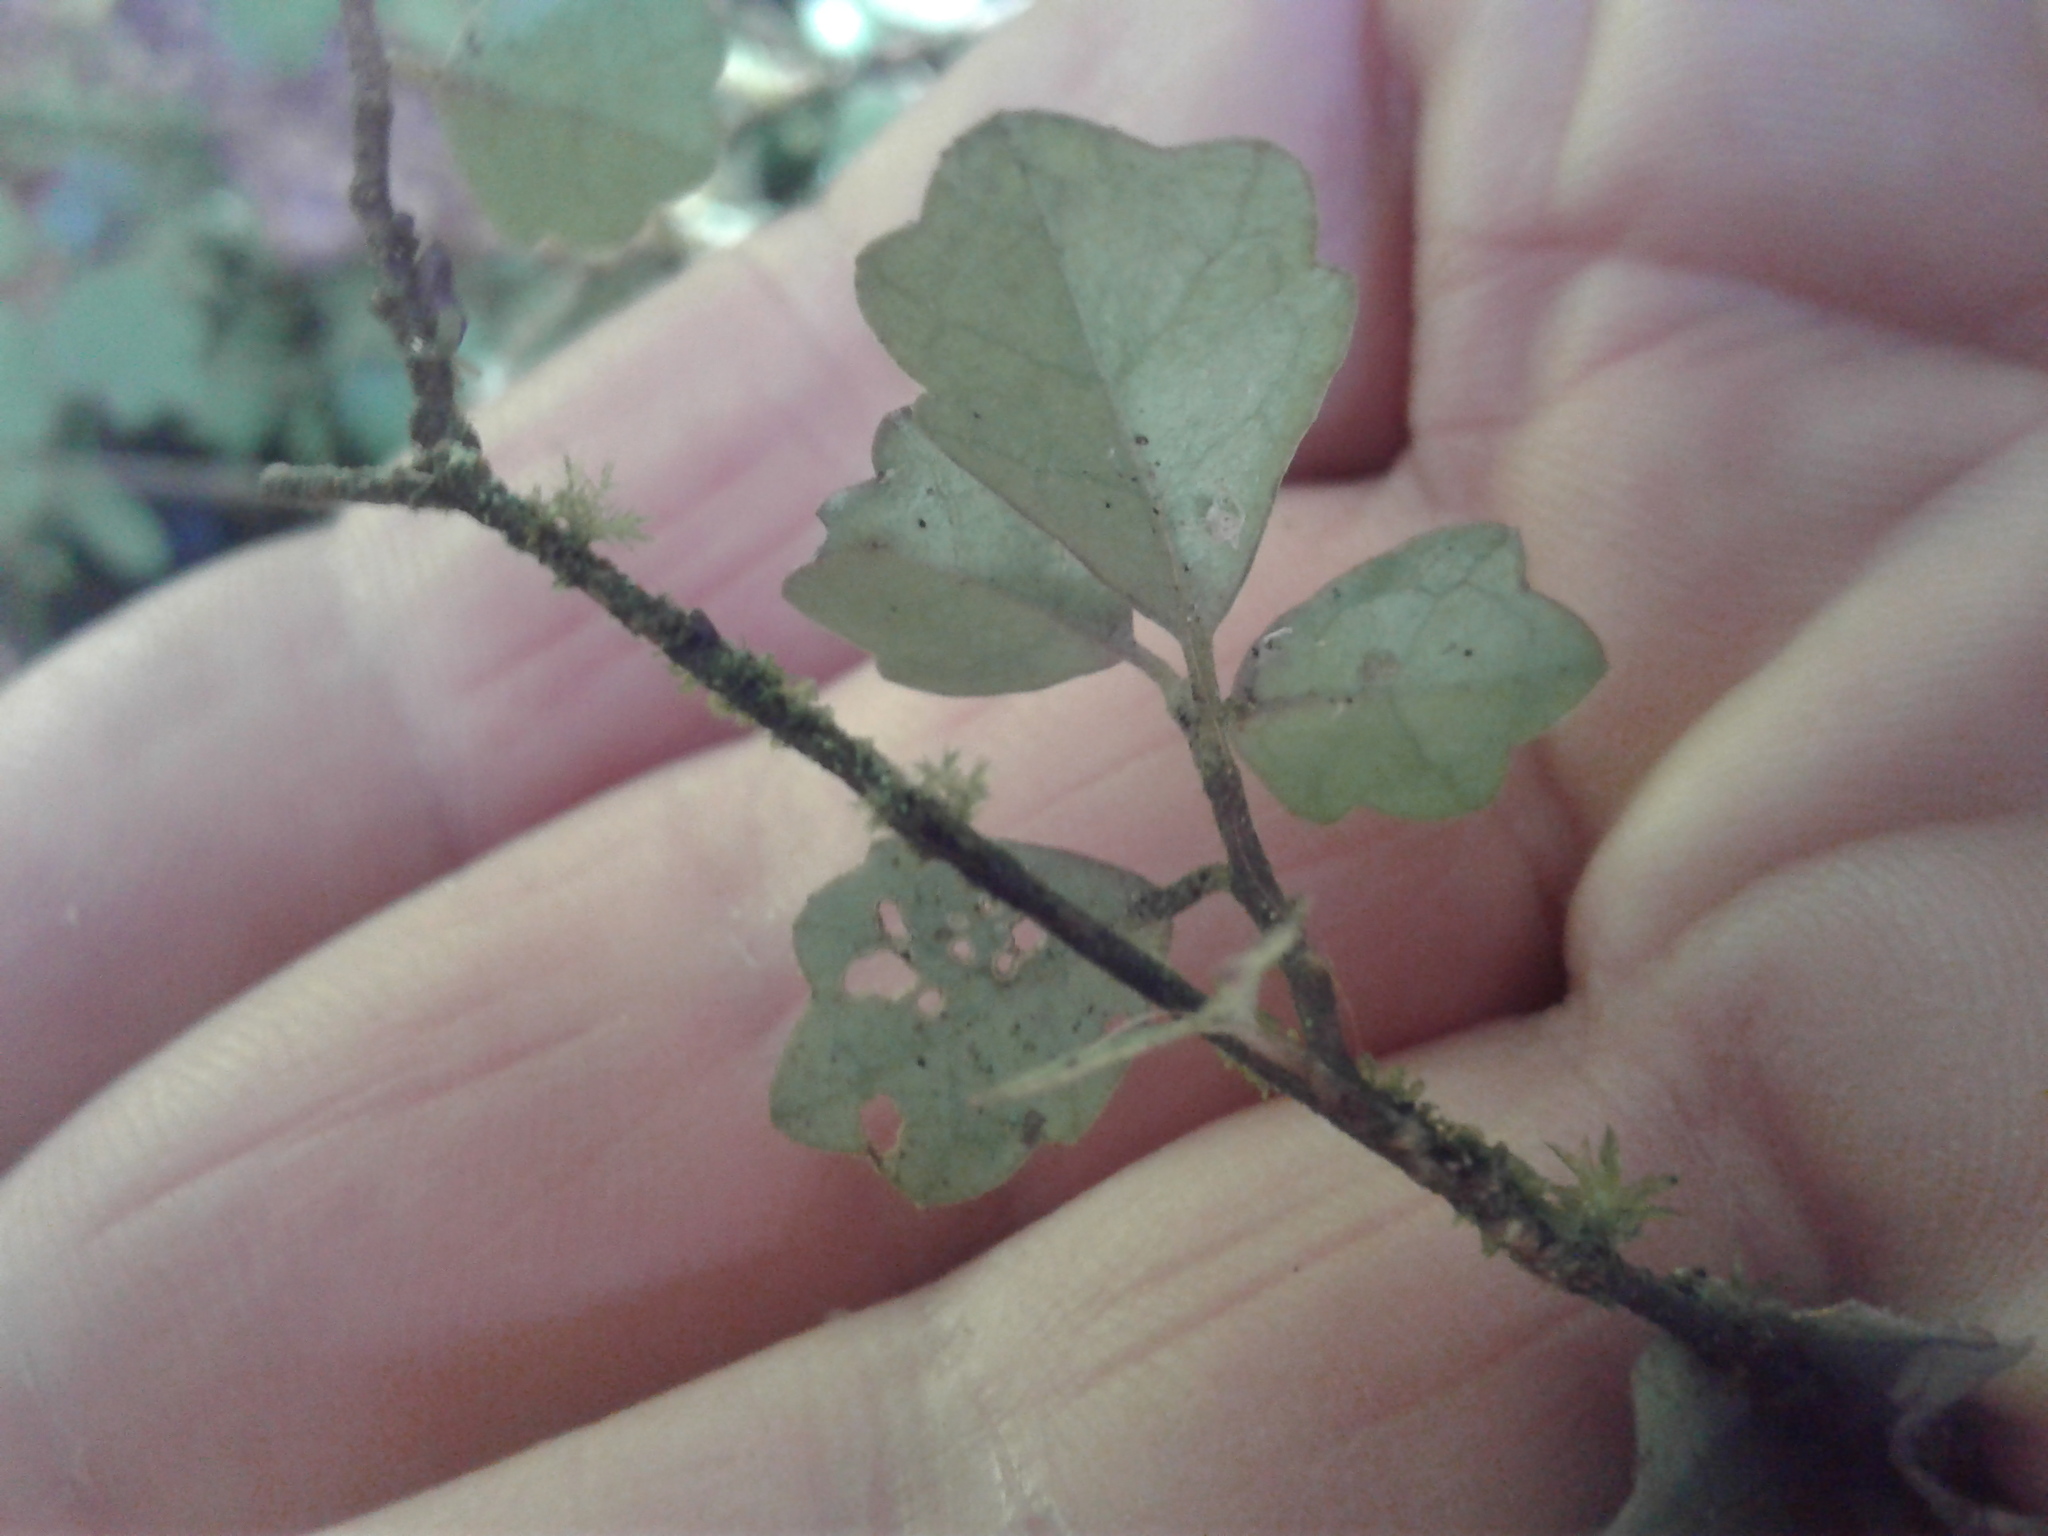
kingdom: Plantae
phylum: Tracheophyta
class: Magnoliopsida
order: Apiales
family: Pennantiaceae
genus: Pennantia
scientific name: Pennantia corymbosa
